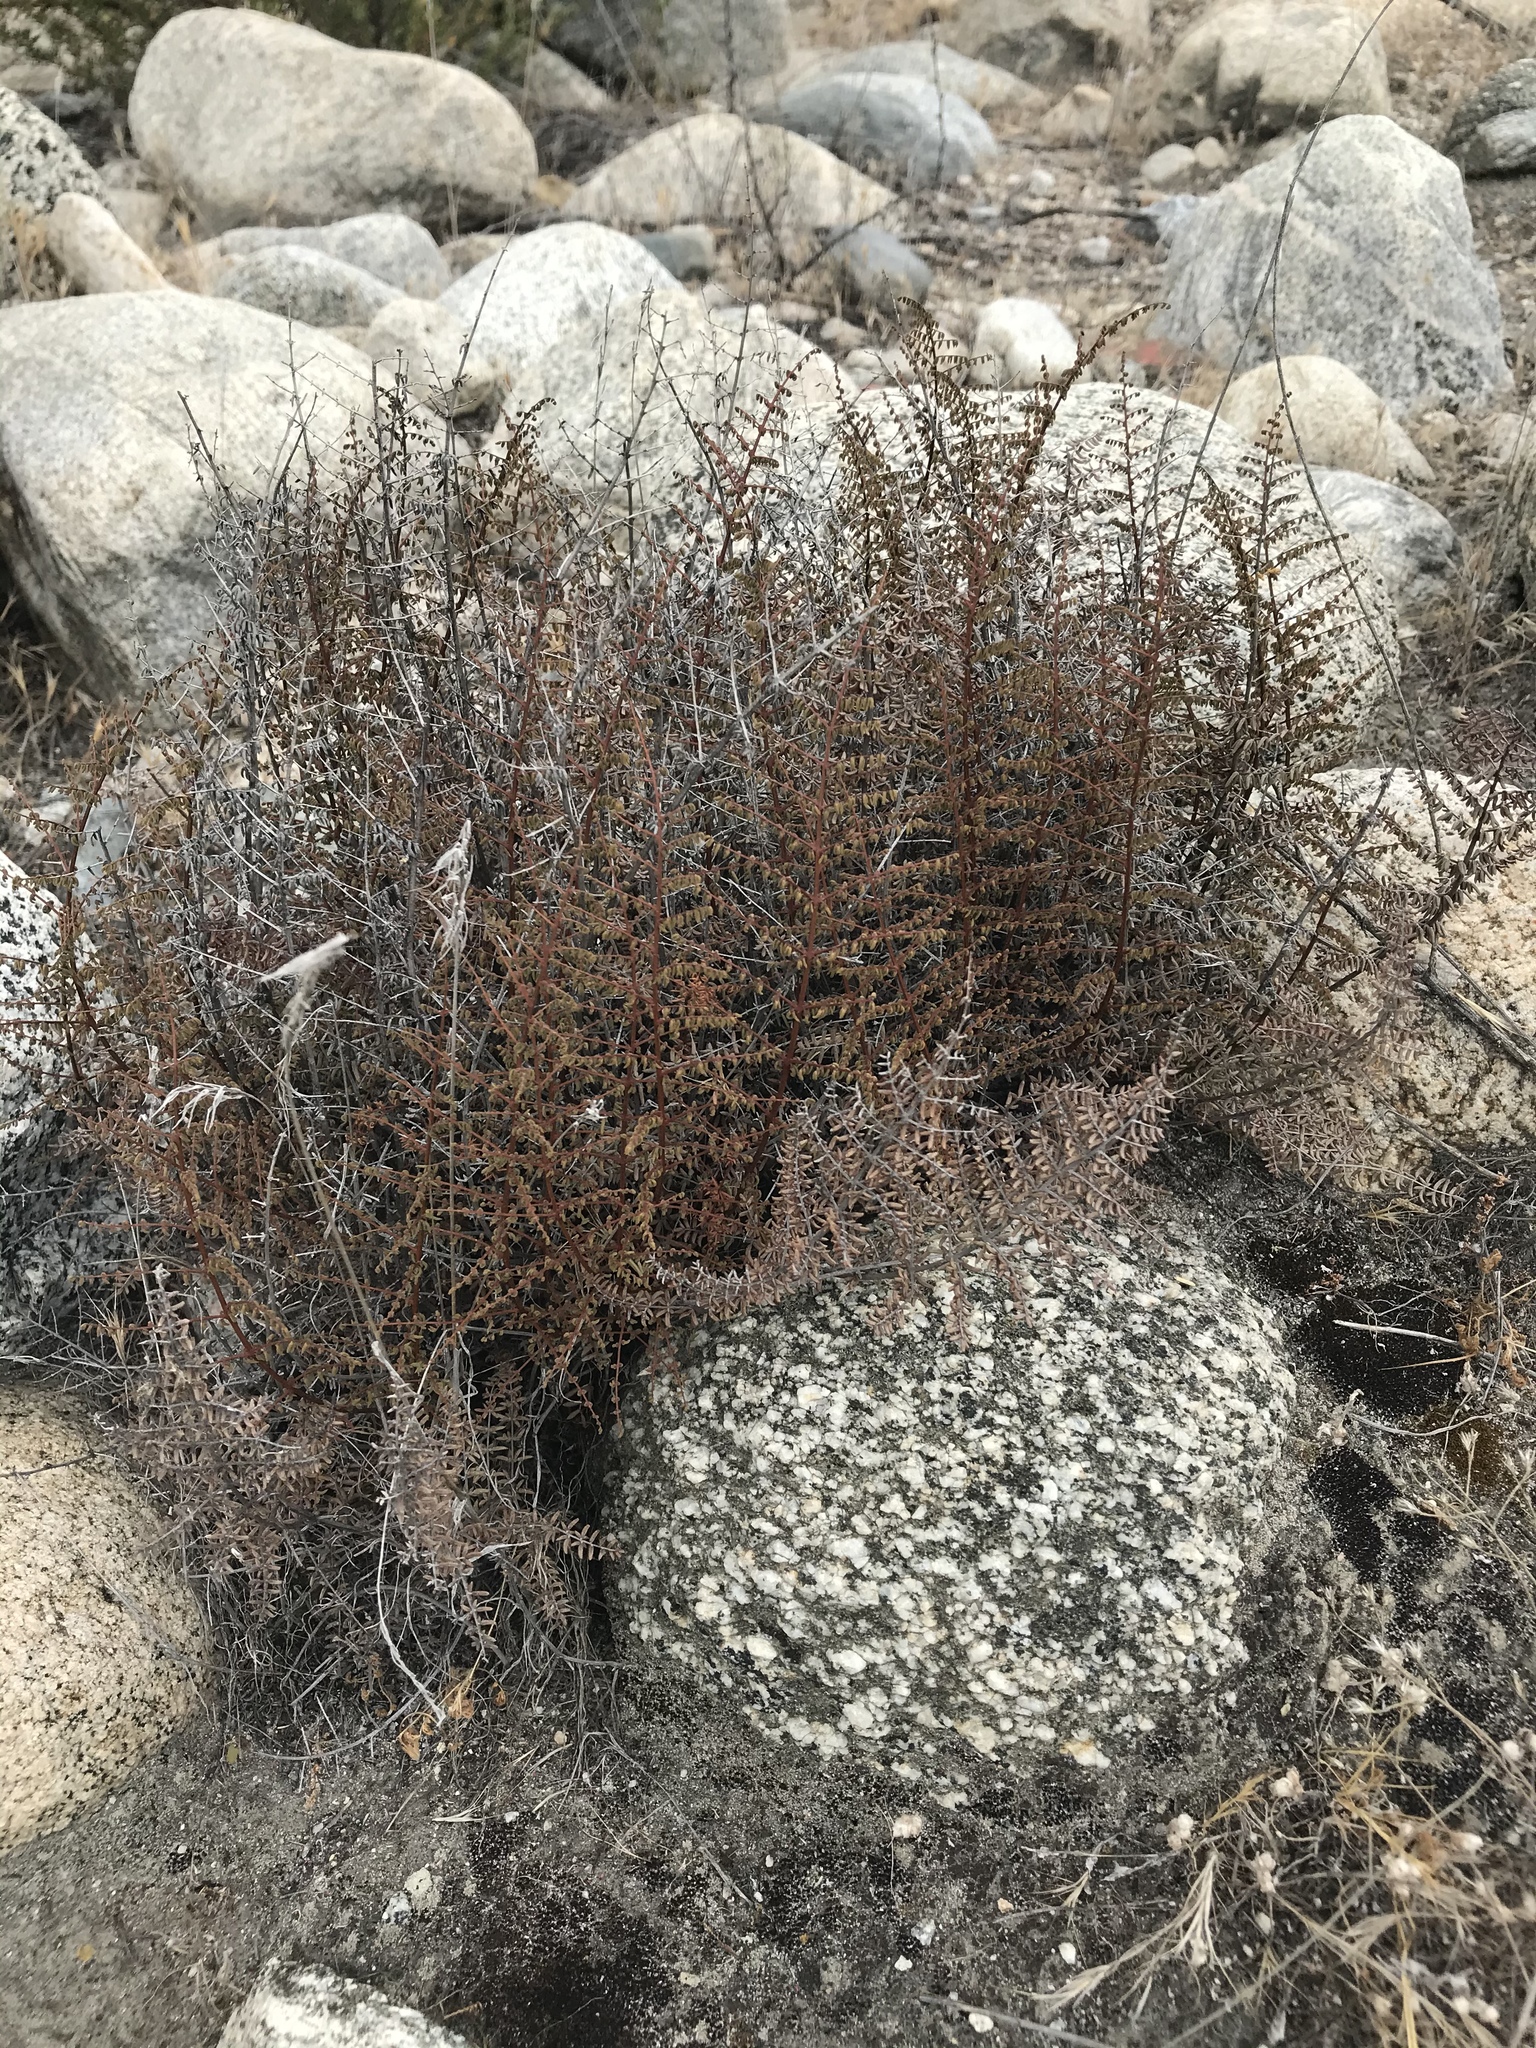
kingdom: Plantae
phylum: Tracheophyta
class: Polypodiopsida
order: Polypodiales
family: Pteridaceae
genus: Pellaea
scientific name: Pellaea mucronata
